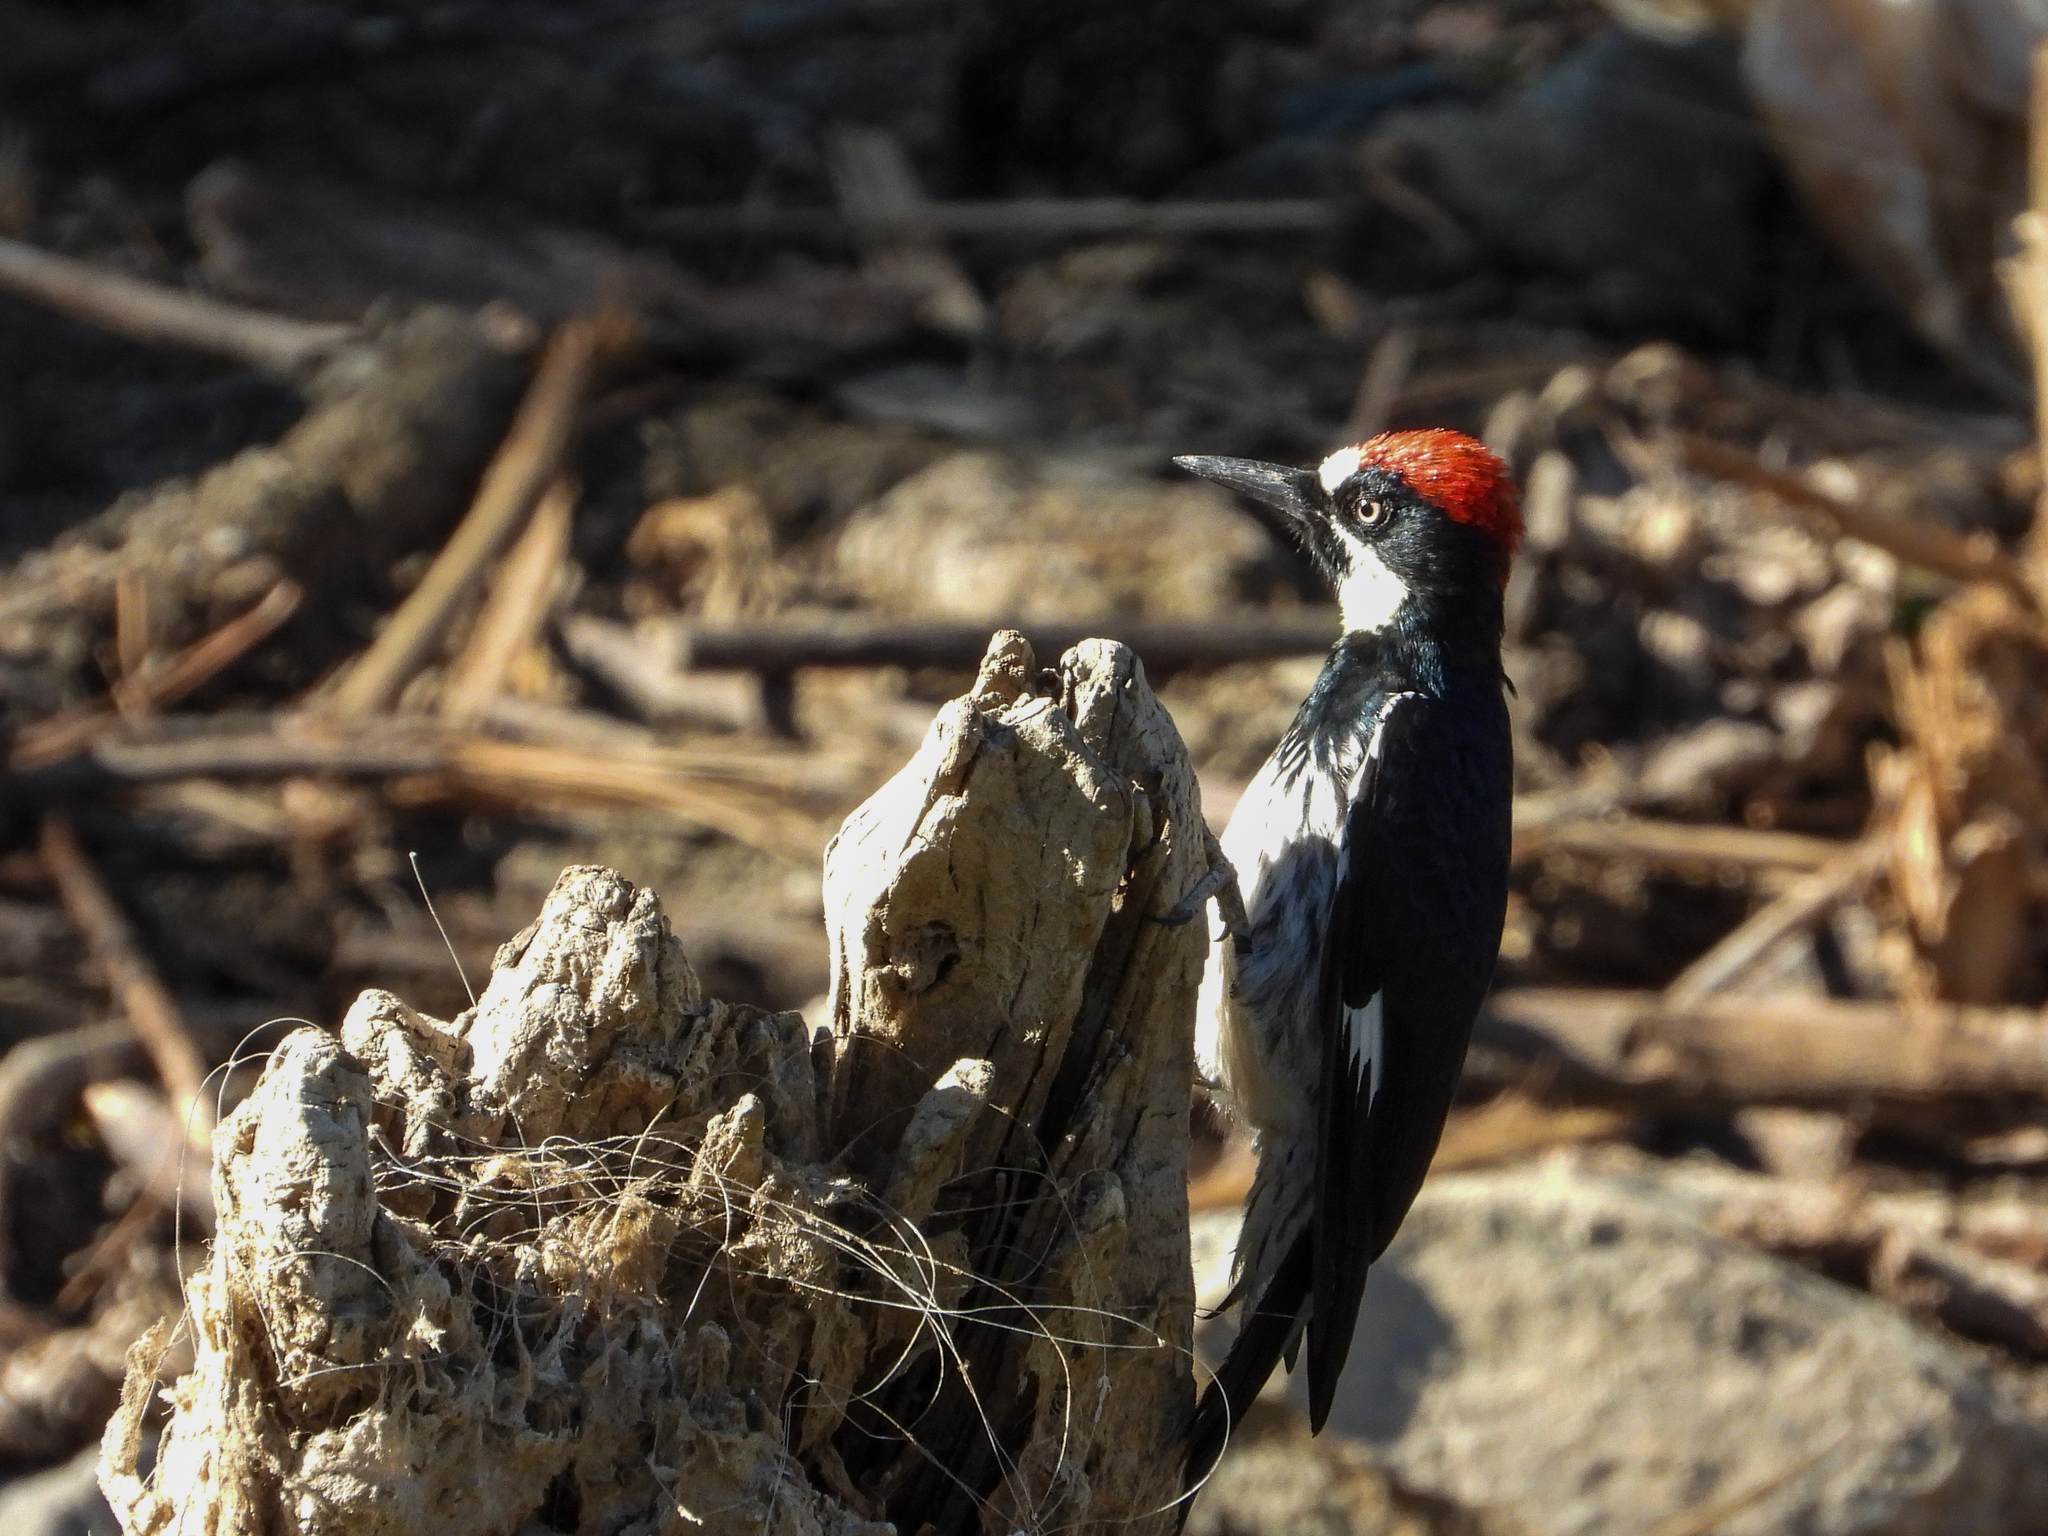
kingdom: Animalia
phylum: Chordata
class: Aves
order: Piciformes
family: Picidae
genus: Melanerpes
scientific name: Melanerpes formicivorus
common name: Acorn woodpecker
